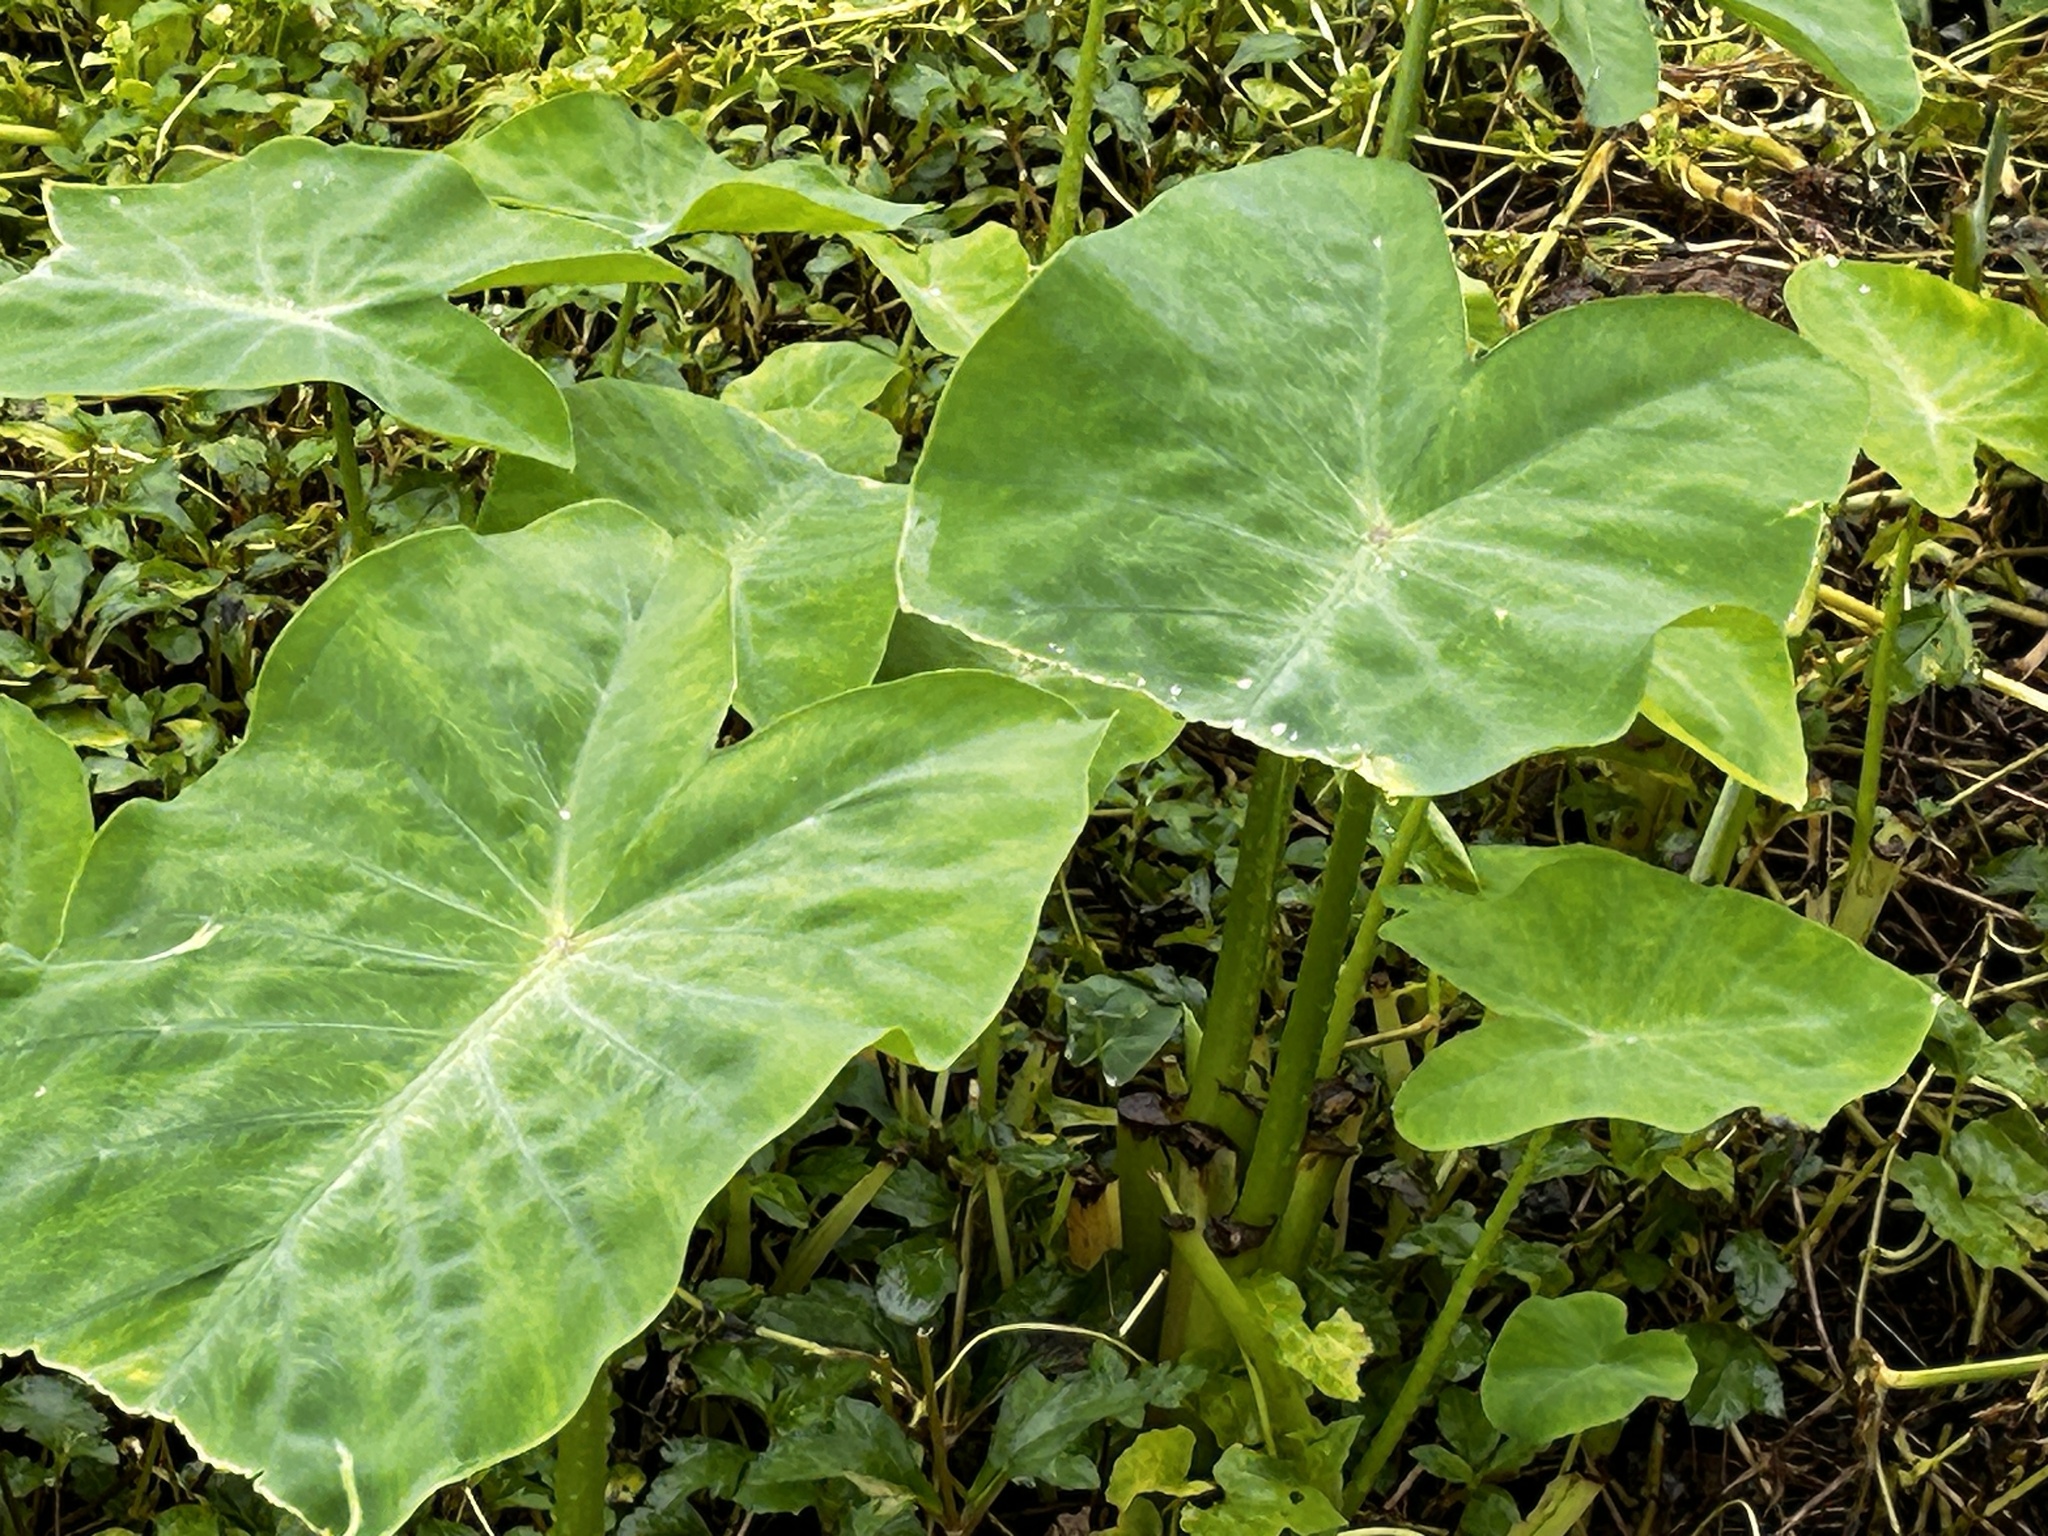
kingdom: Plantae
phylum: Tracheophyta
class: Liliopsida
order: Alismatales
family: Araceae
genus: Colocasia
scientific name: Colocasia esculenta
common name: Taro
